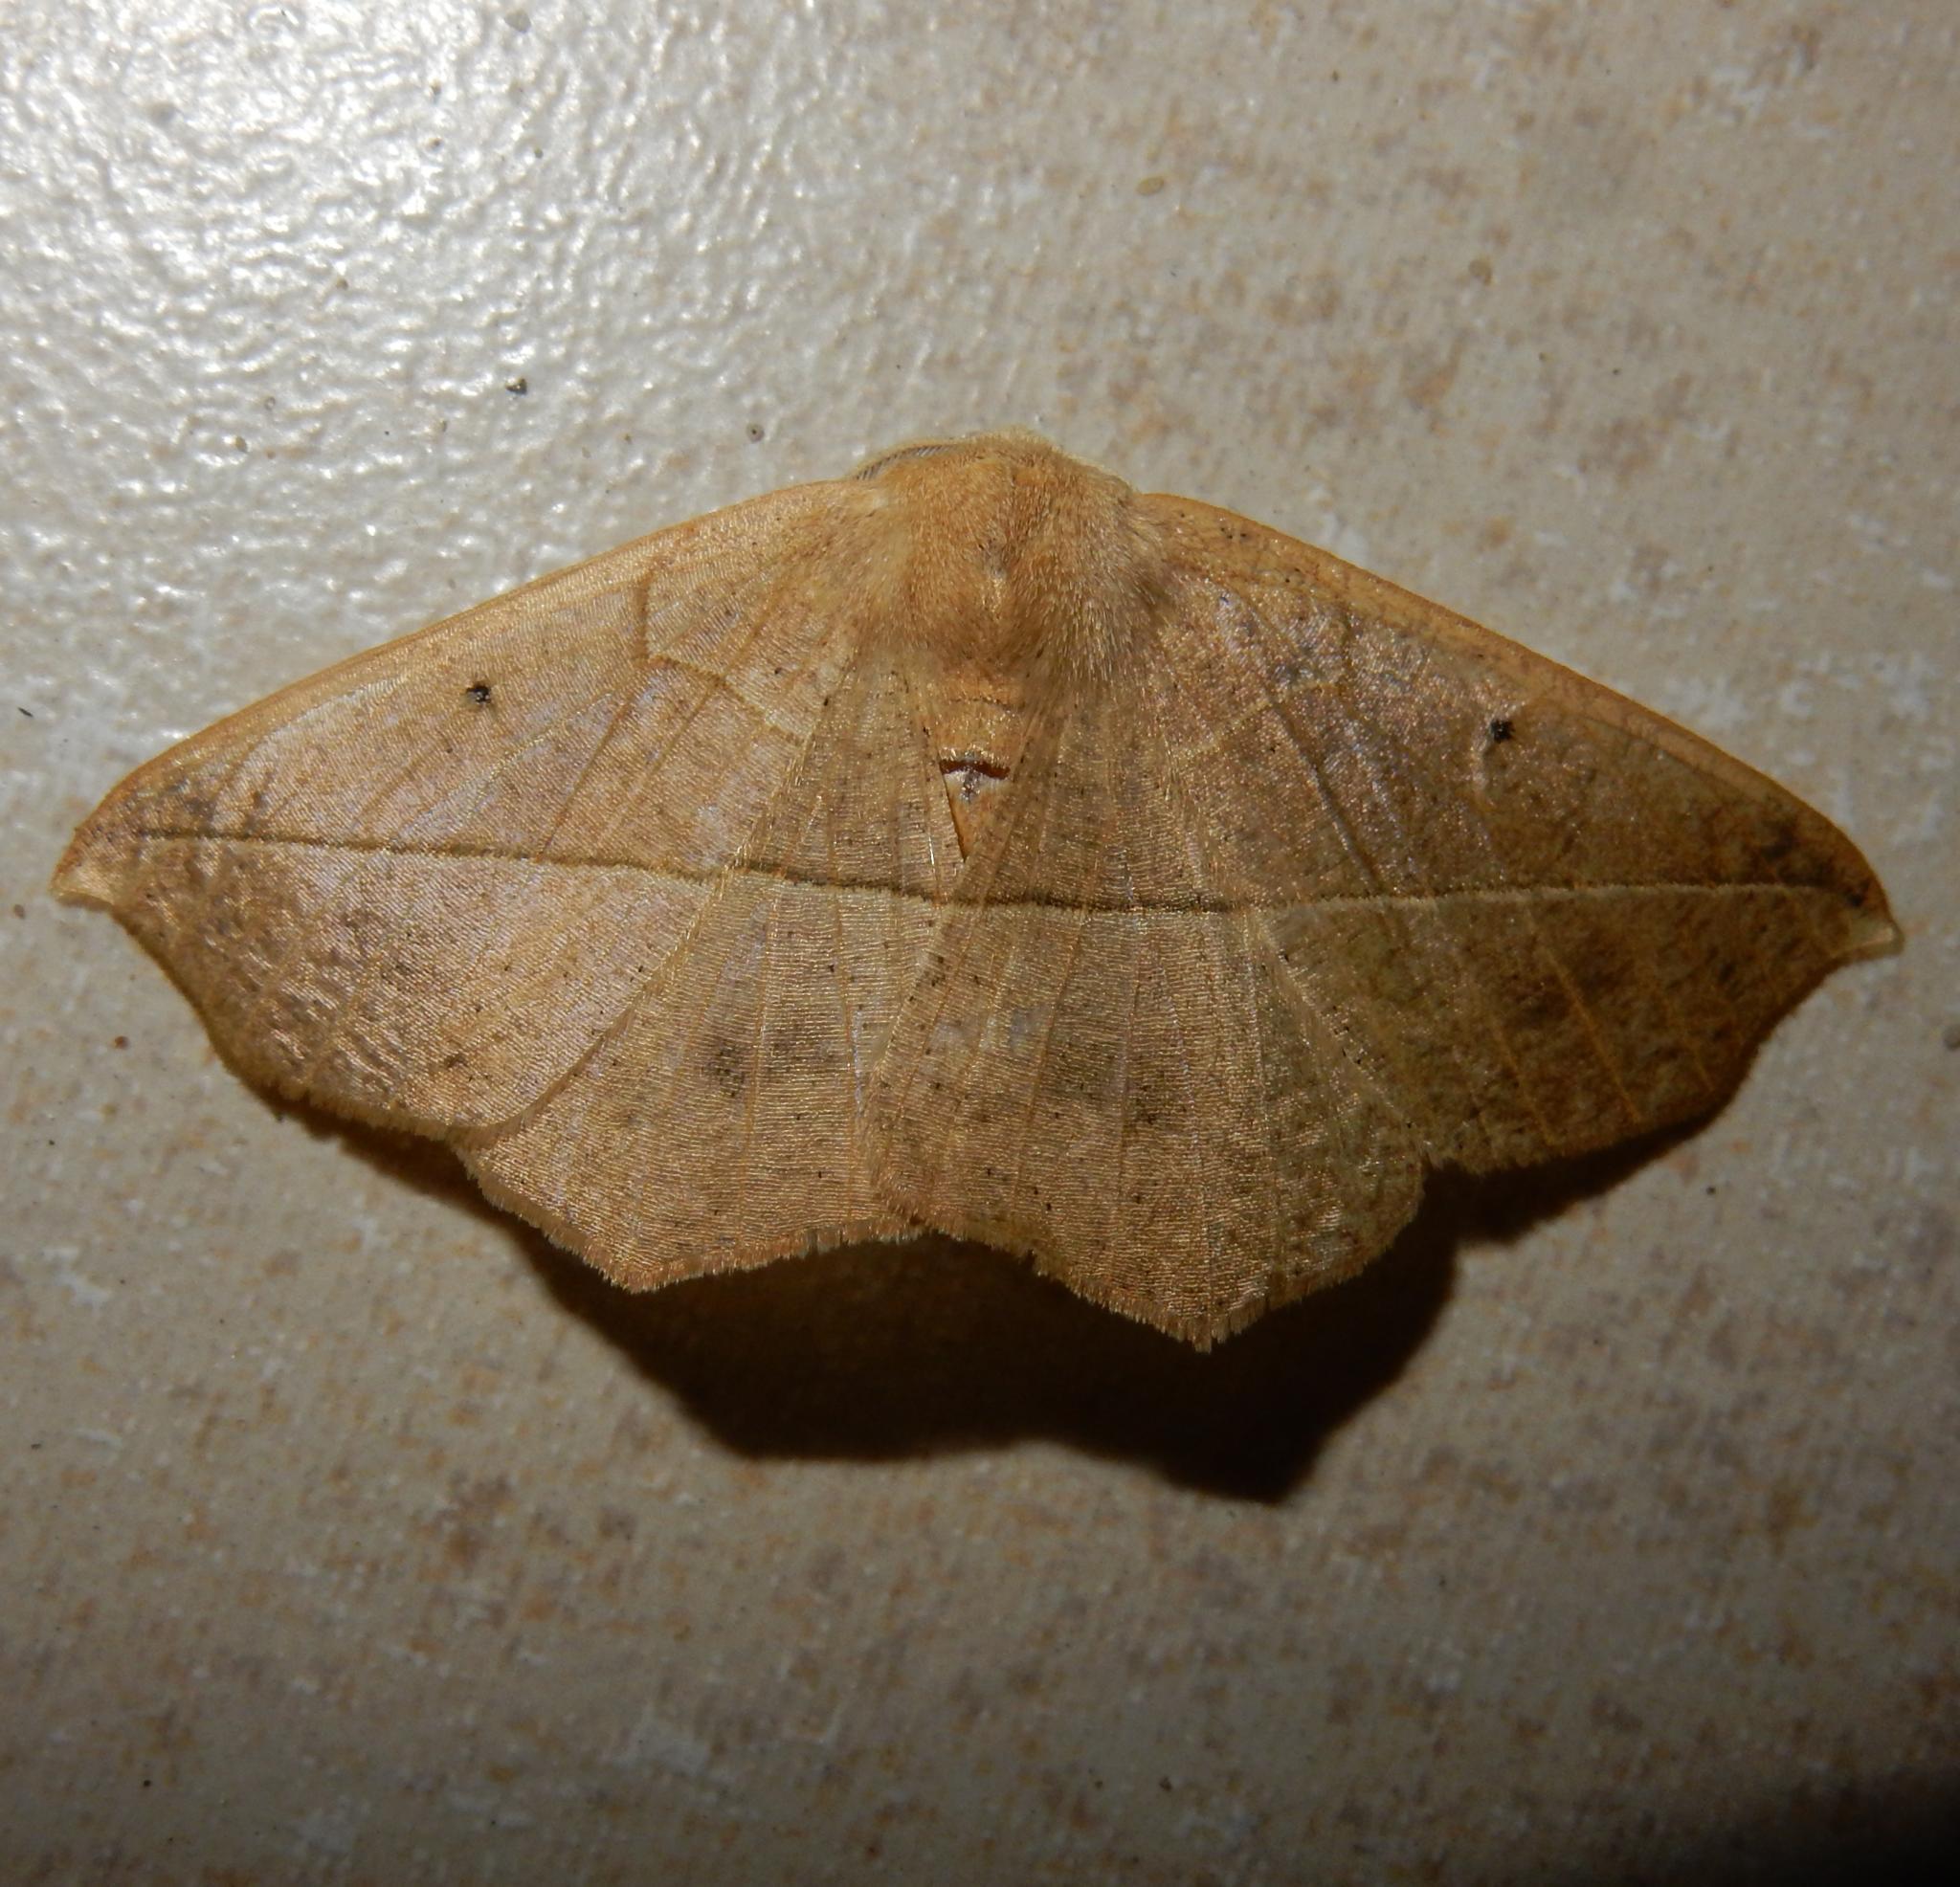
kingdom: Animalia
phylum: Arthropoda
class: Insecta
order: Lepidoptera
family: Geometridae
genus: Psilocerea
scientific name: Psilocerea pulverosa
